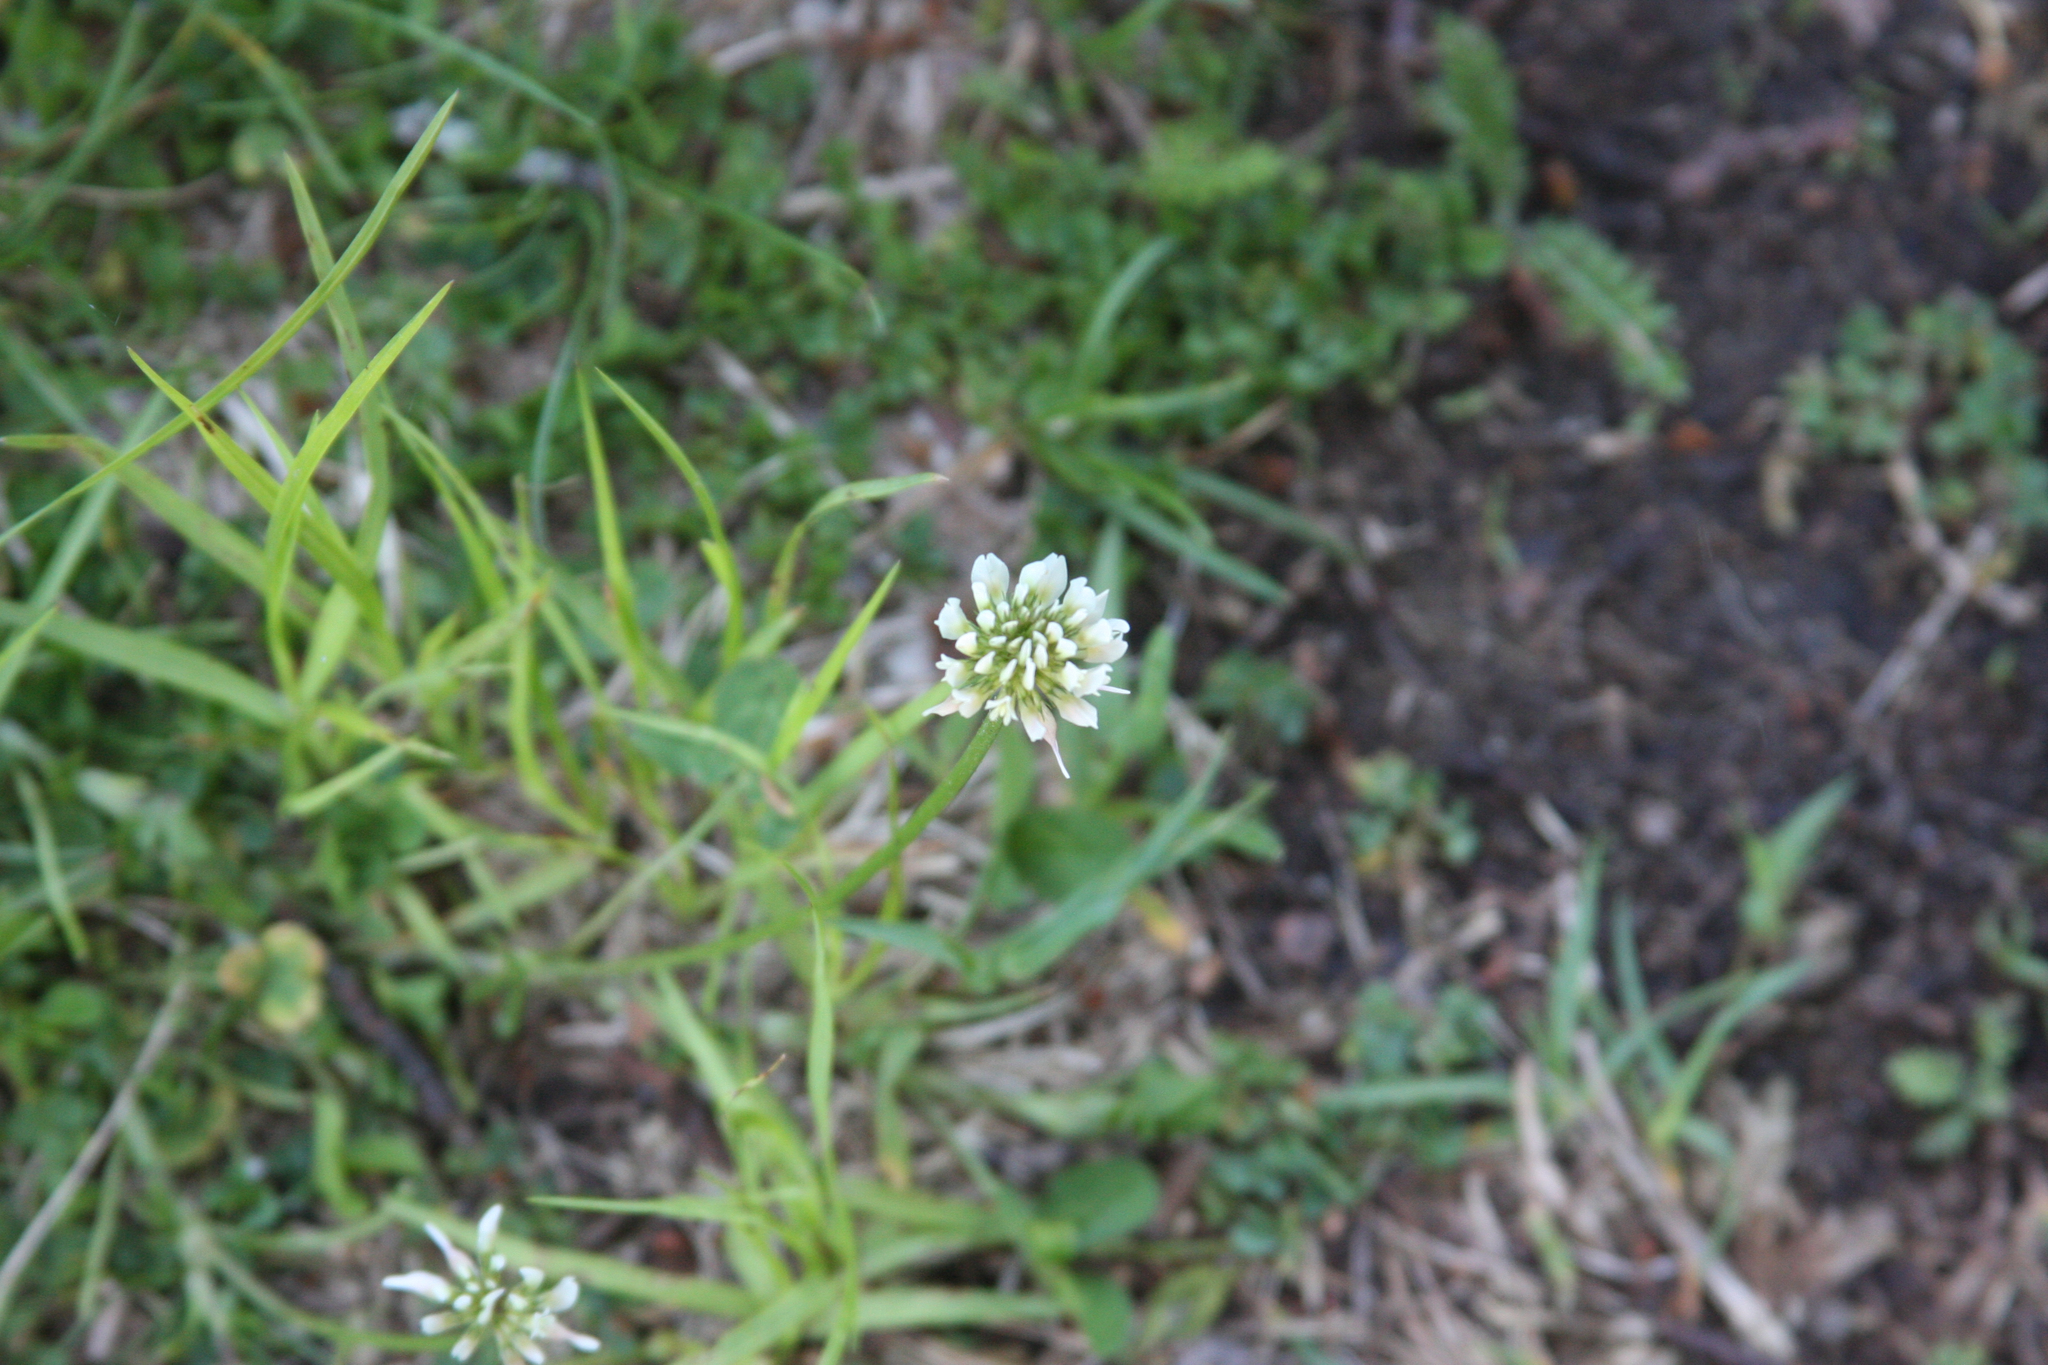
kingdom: Plantae
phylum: Tracheophyta
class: Magnoliopsida
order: Fabales
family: Fabaceae
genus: Trifolium
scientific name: Trifolium repens
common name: White clover
